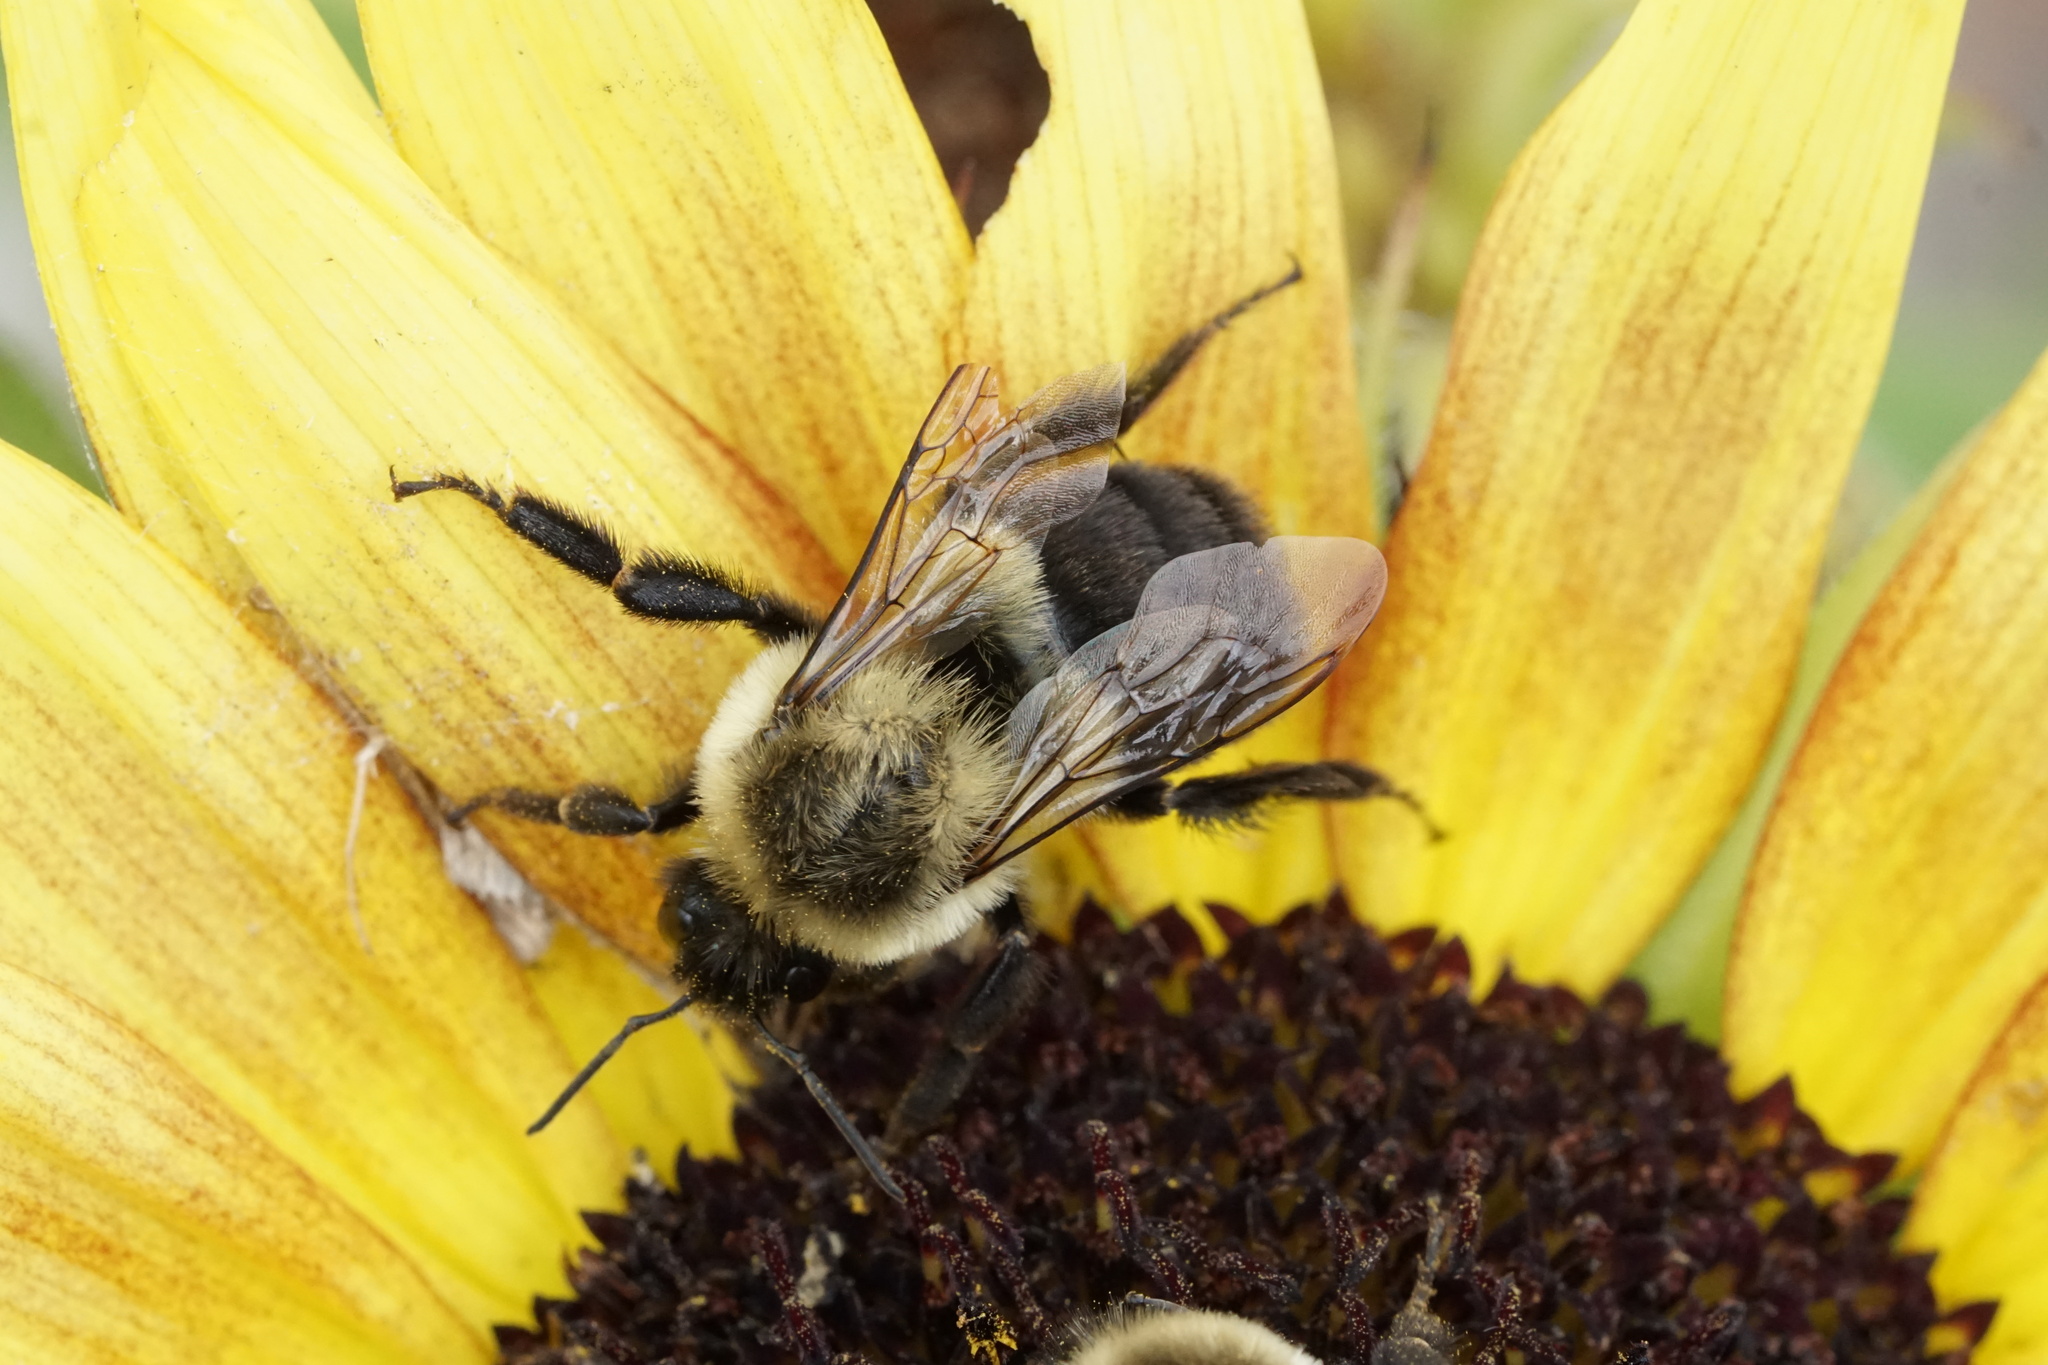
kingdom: Animalia
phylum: Arthropoda
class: Insecta
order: Hymenoptera
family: Apidae
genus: Bombus
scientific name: Bombus impatiens
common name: Common eastern bumble bee
